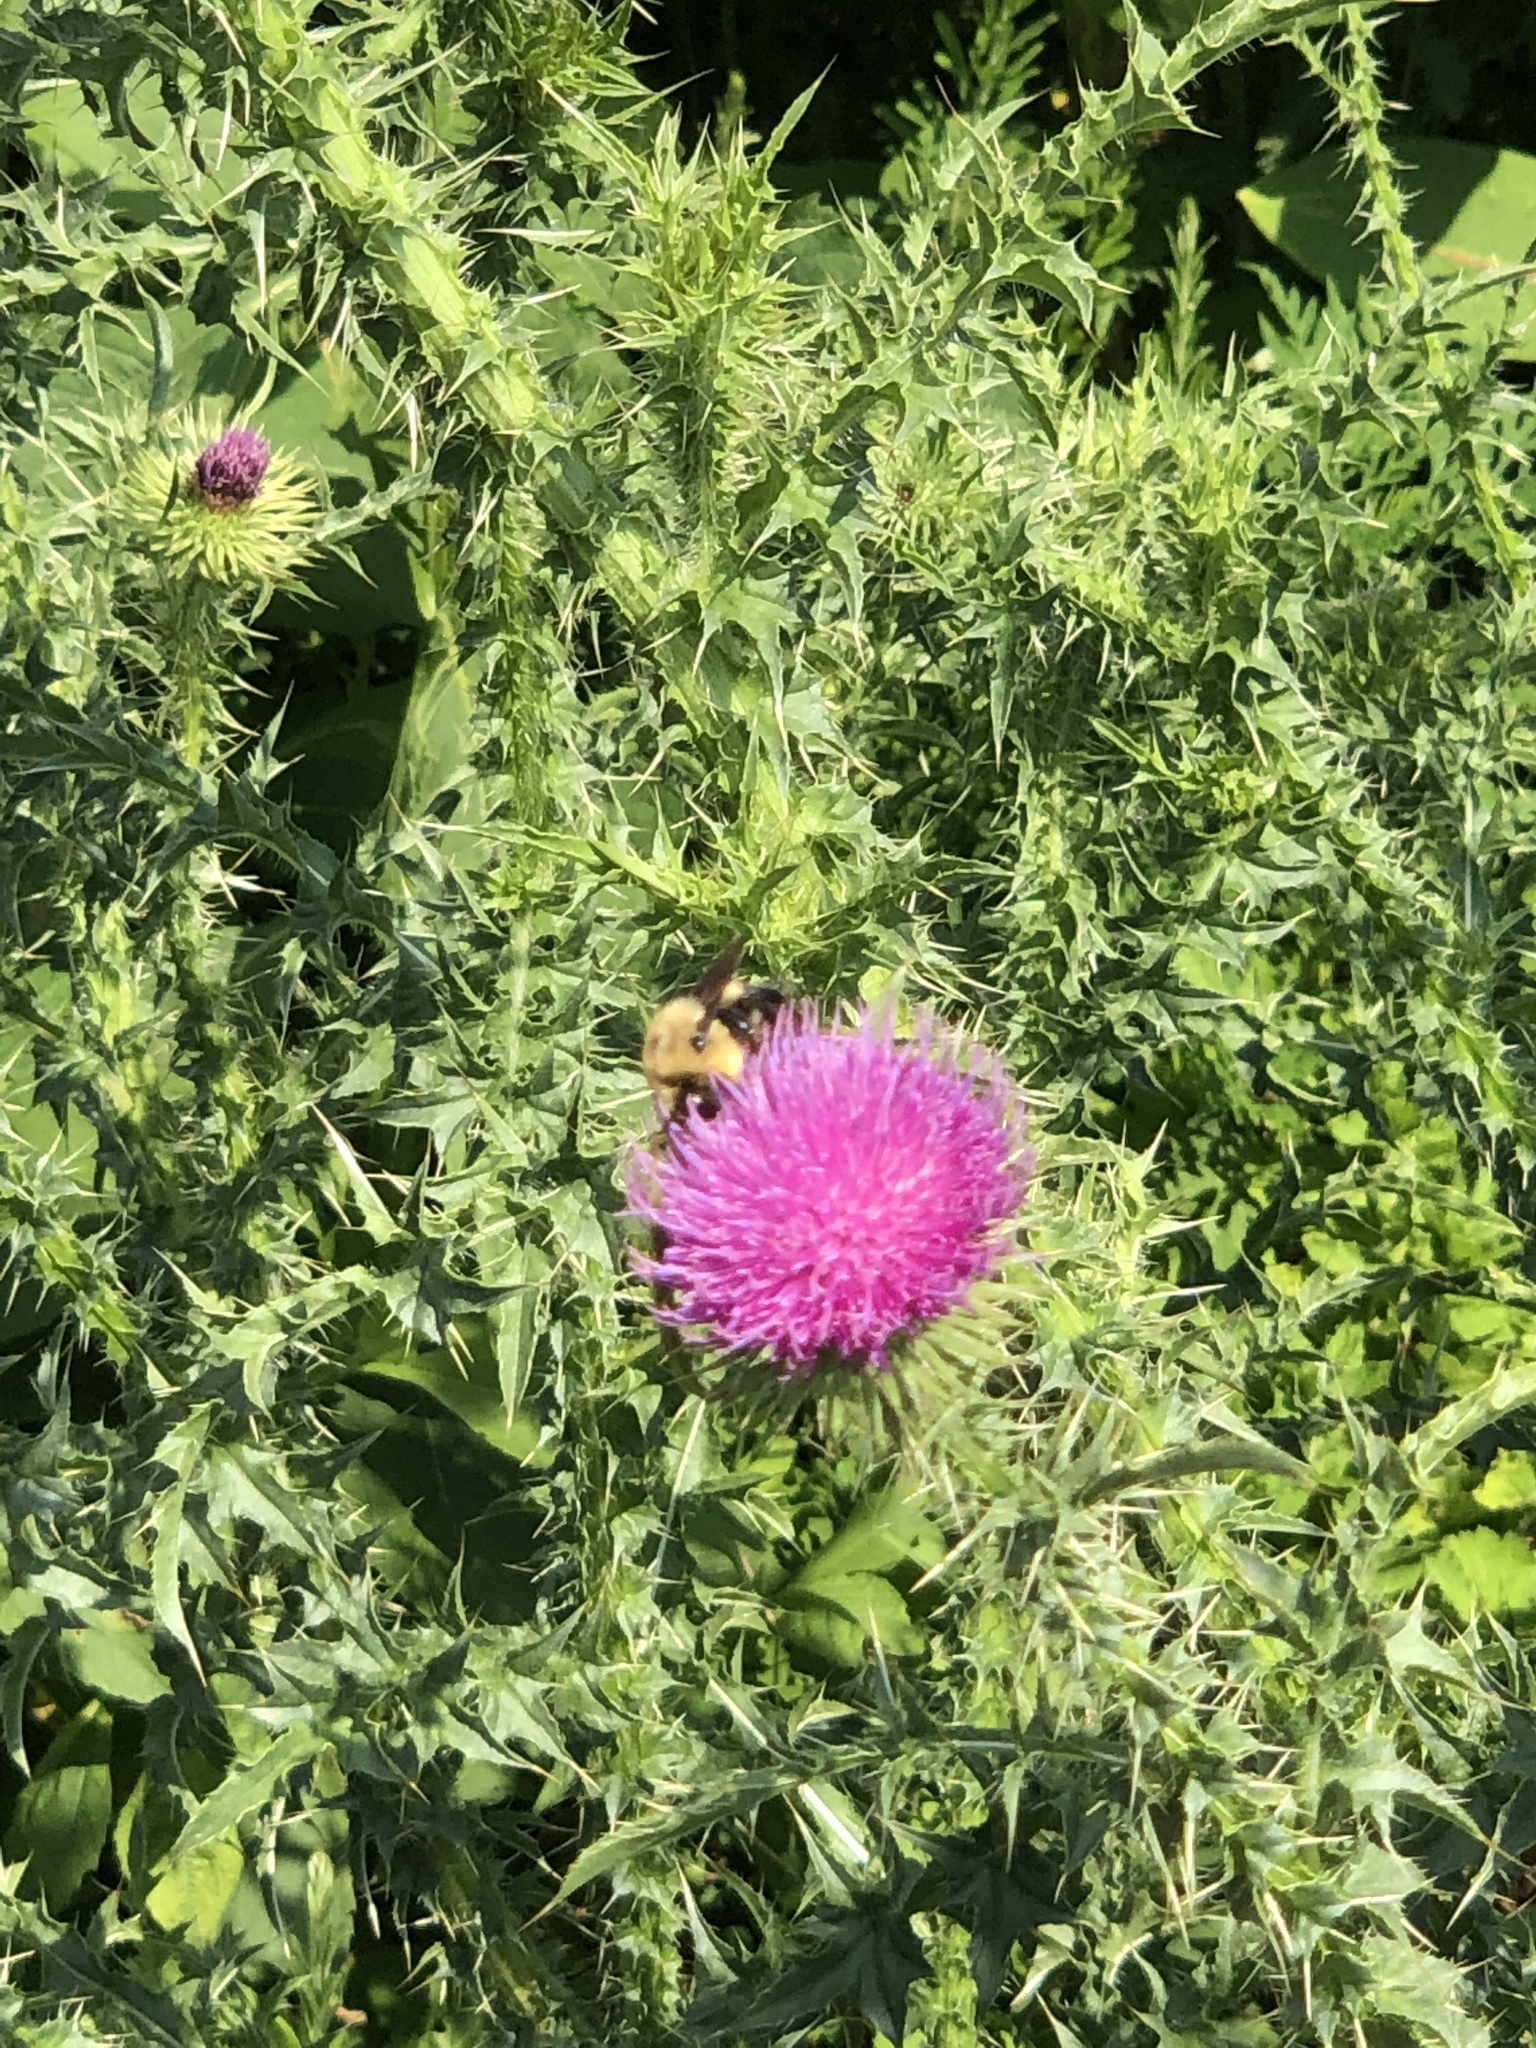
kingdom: Animalia
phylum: Arthropoda
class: Insecta
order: Hymenoptera
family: Apidae
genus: Bombus
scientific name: Bombus griseocollis
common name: Brown-belted bumble bee
